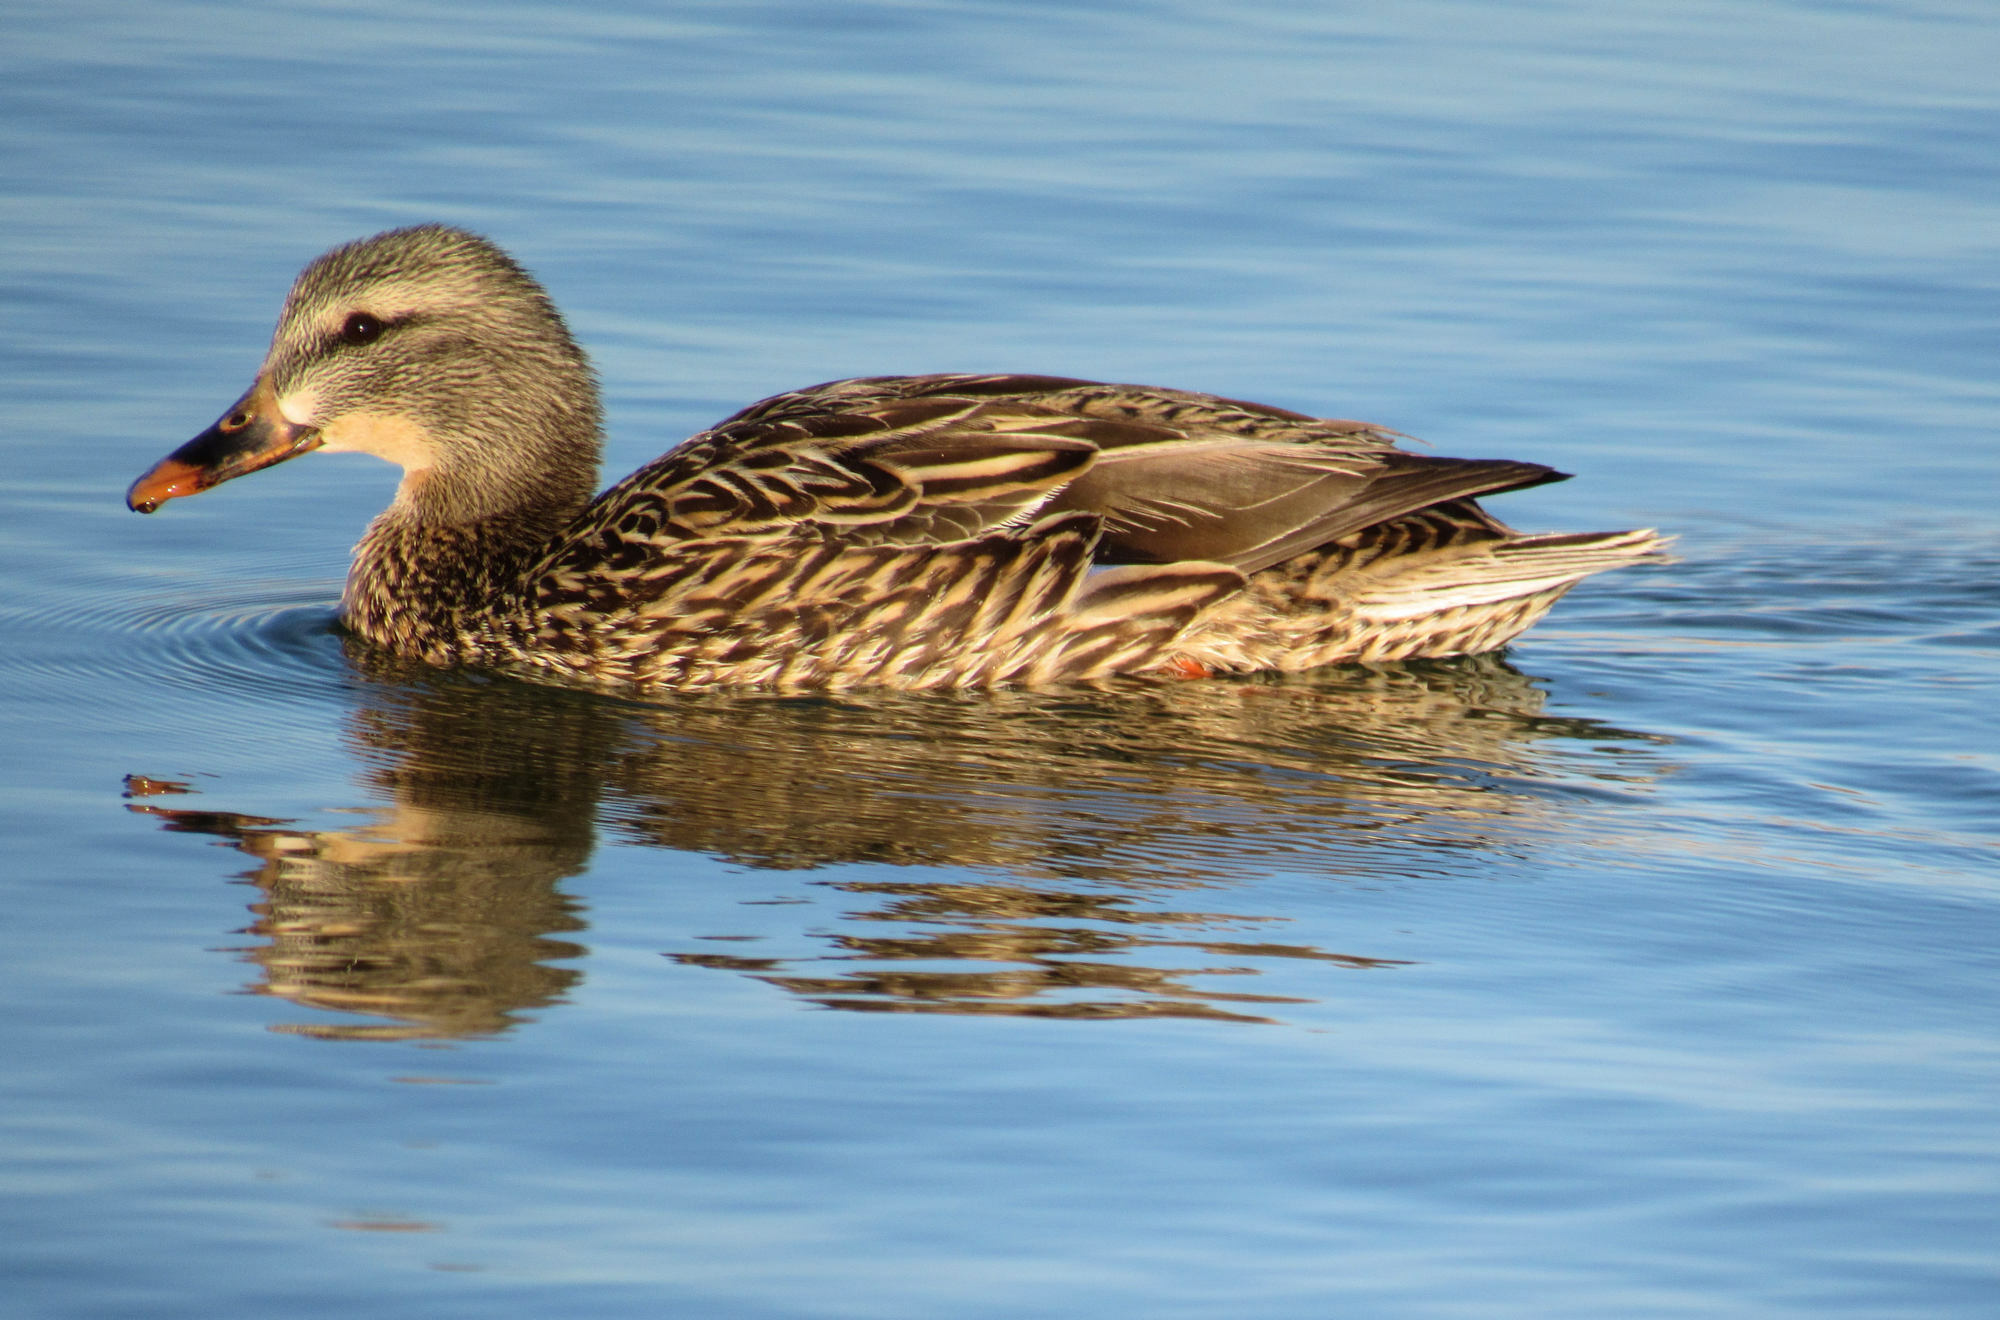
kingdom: Animalia
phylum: Chordata
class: Aves
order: Anseriformes
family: Anatidae
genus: Anas
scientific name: Anas platyrhynchos
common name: Mallard
